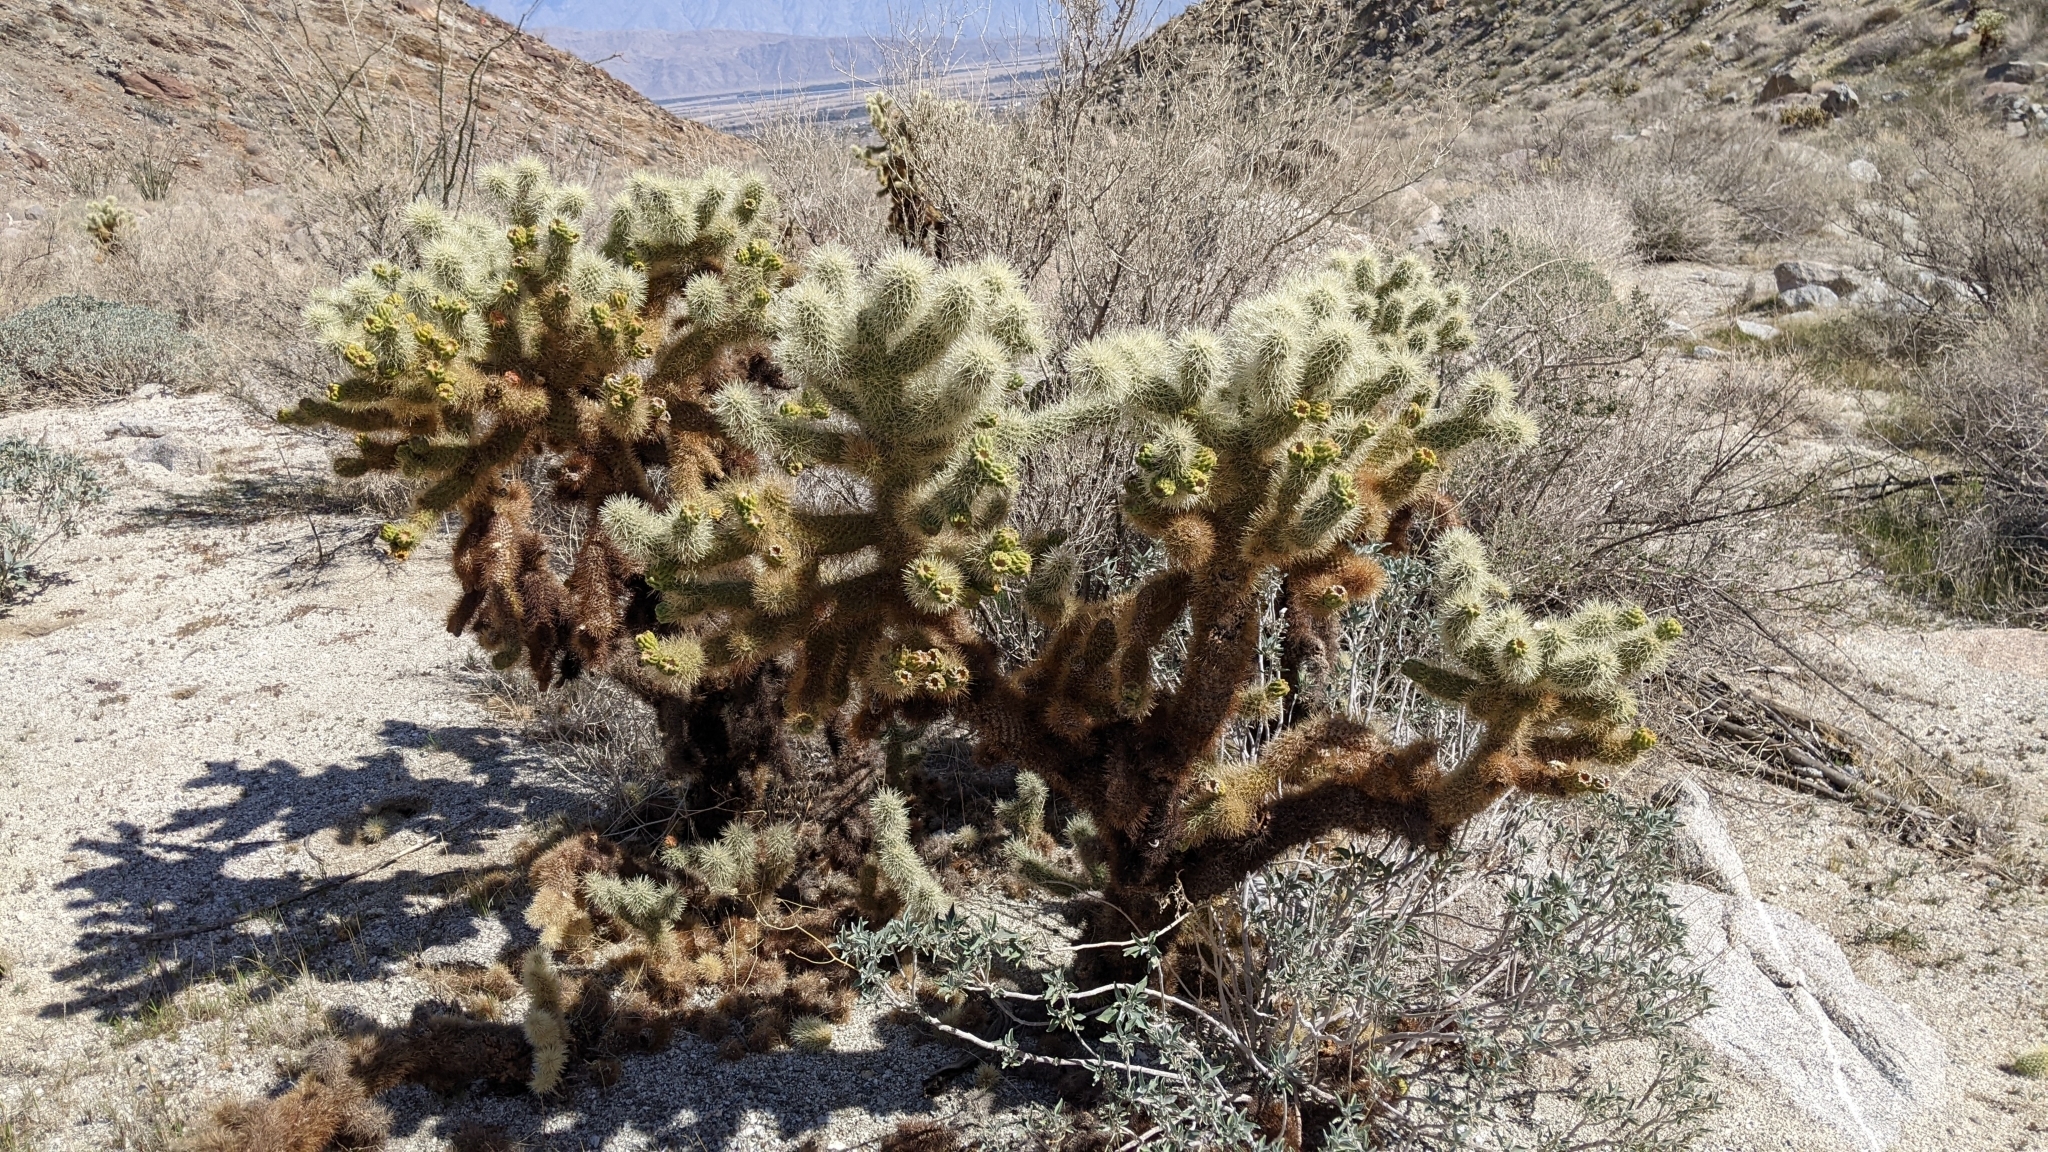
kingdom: Plantae
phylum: Tracheophyta
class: Magnoliopsida
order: Caryophyllales
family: Cactaceae
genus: Cylindropuntia
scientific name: Cylindropuntia fosbergii
